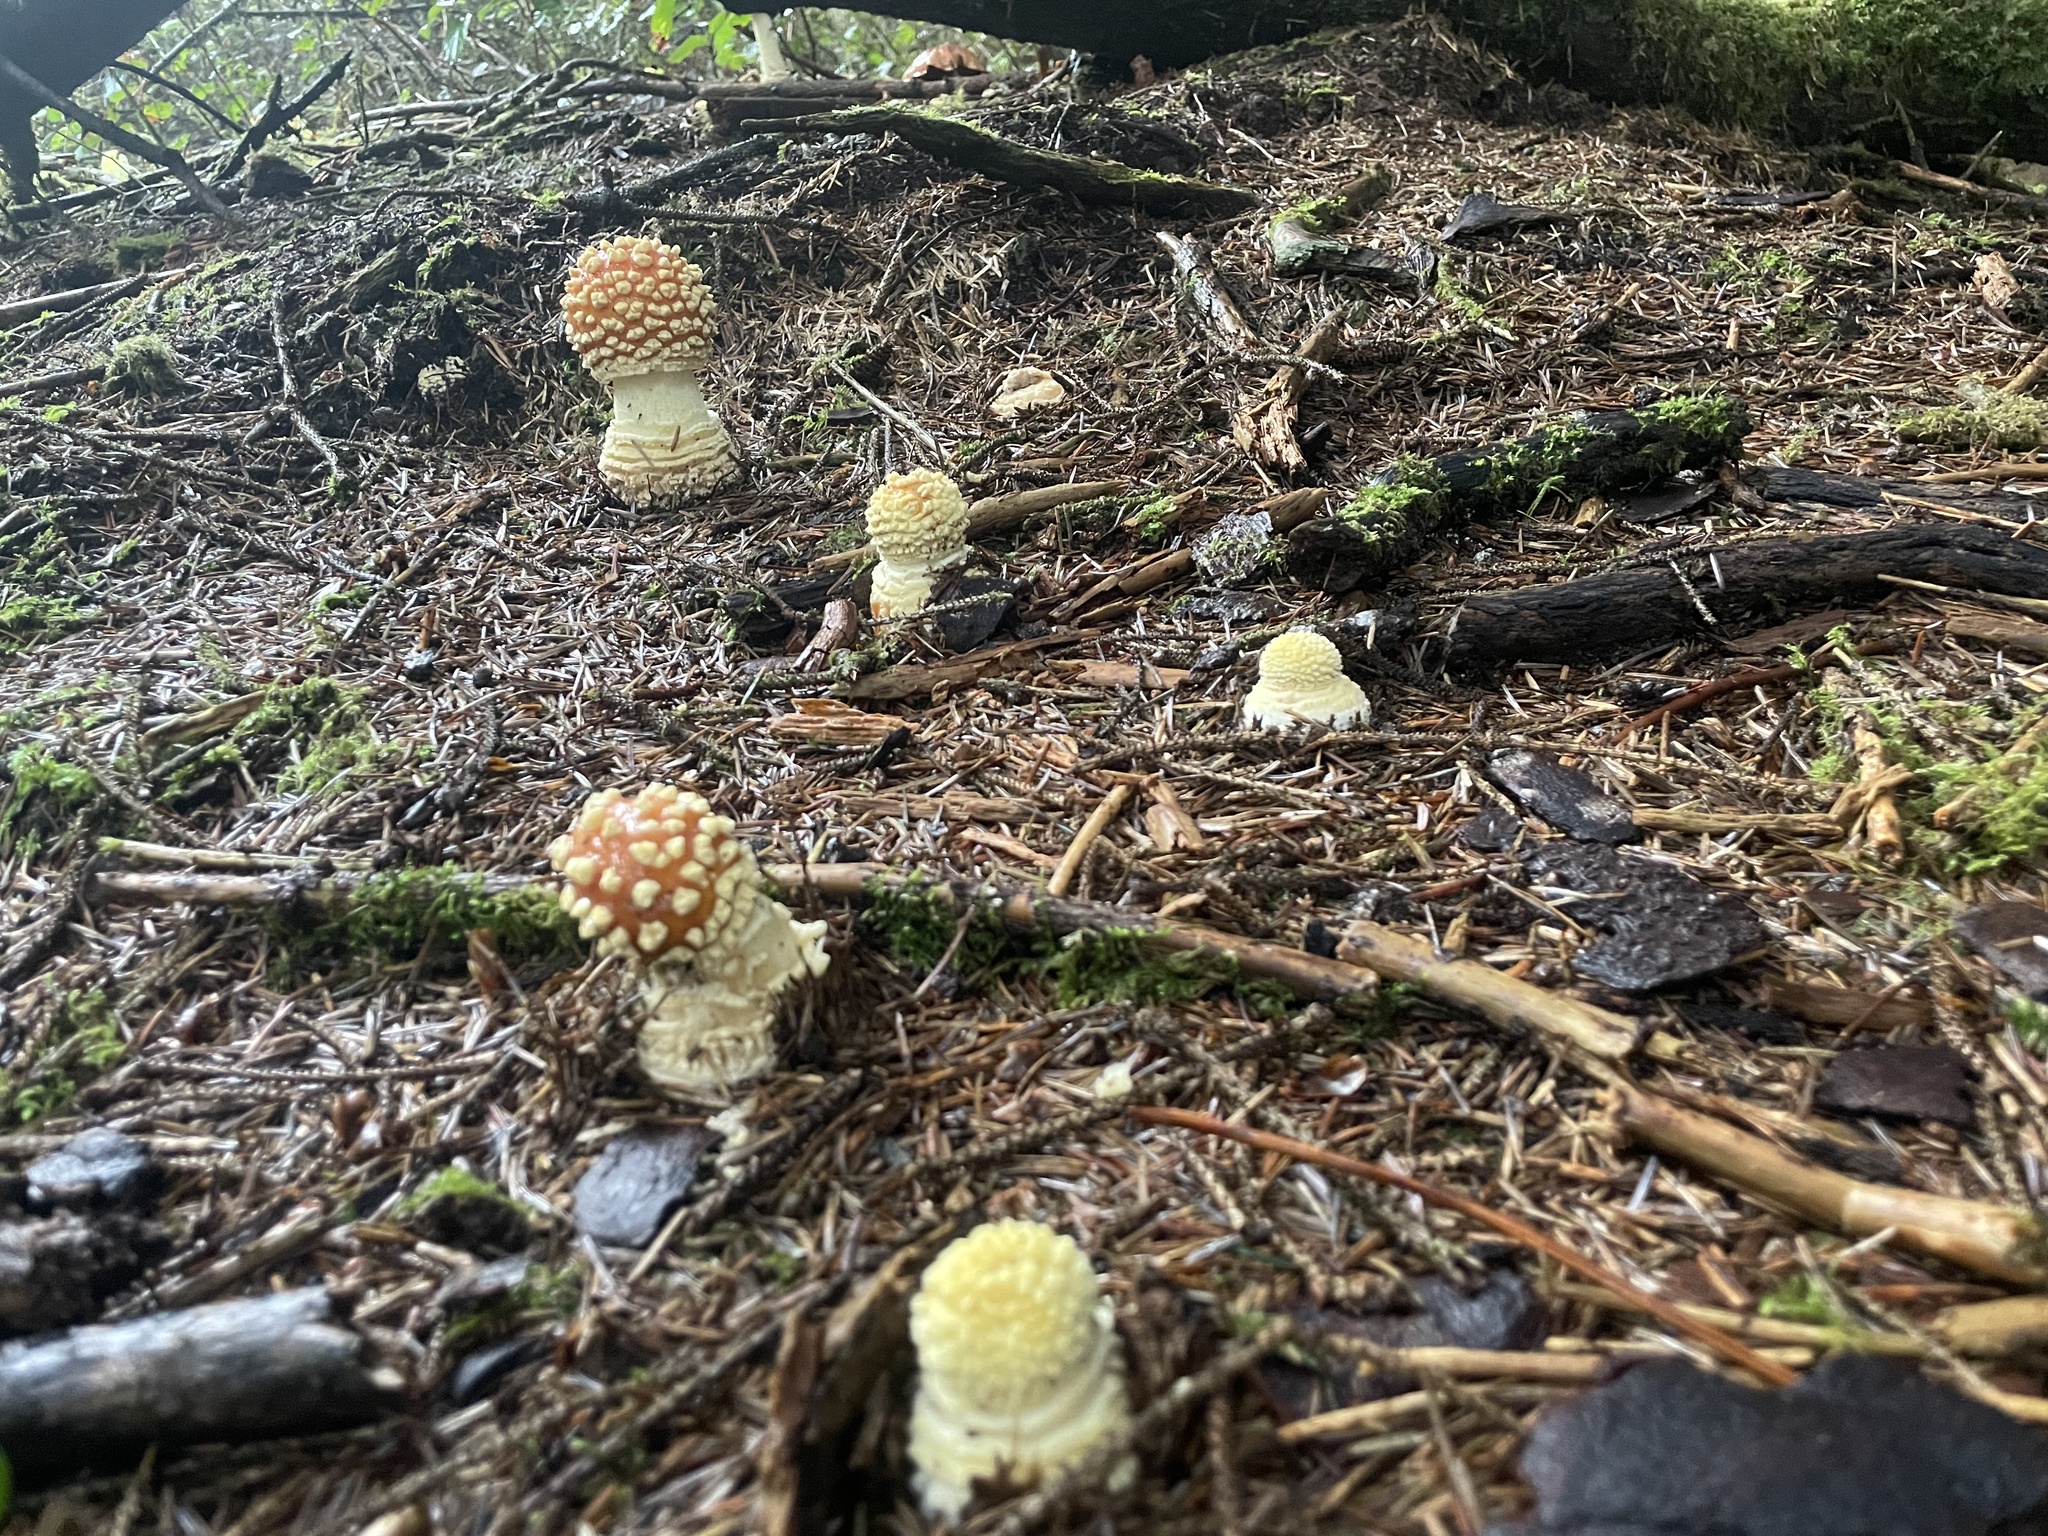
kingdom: Fungi
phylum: Basidiomycota
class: Agaricomycetes
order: Agaricales
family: Amanitaceae
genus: Amanita
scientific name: Amanita muscaria
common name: Fly agaric
